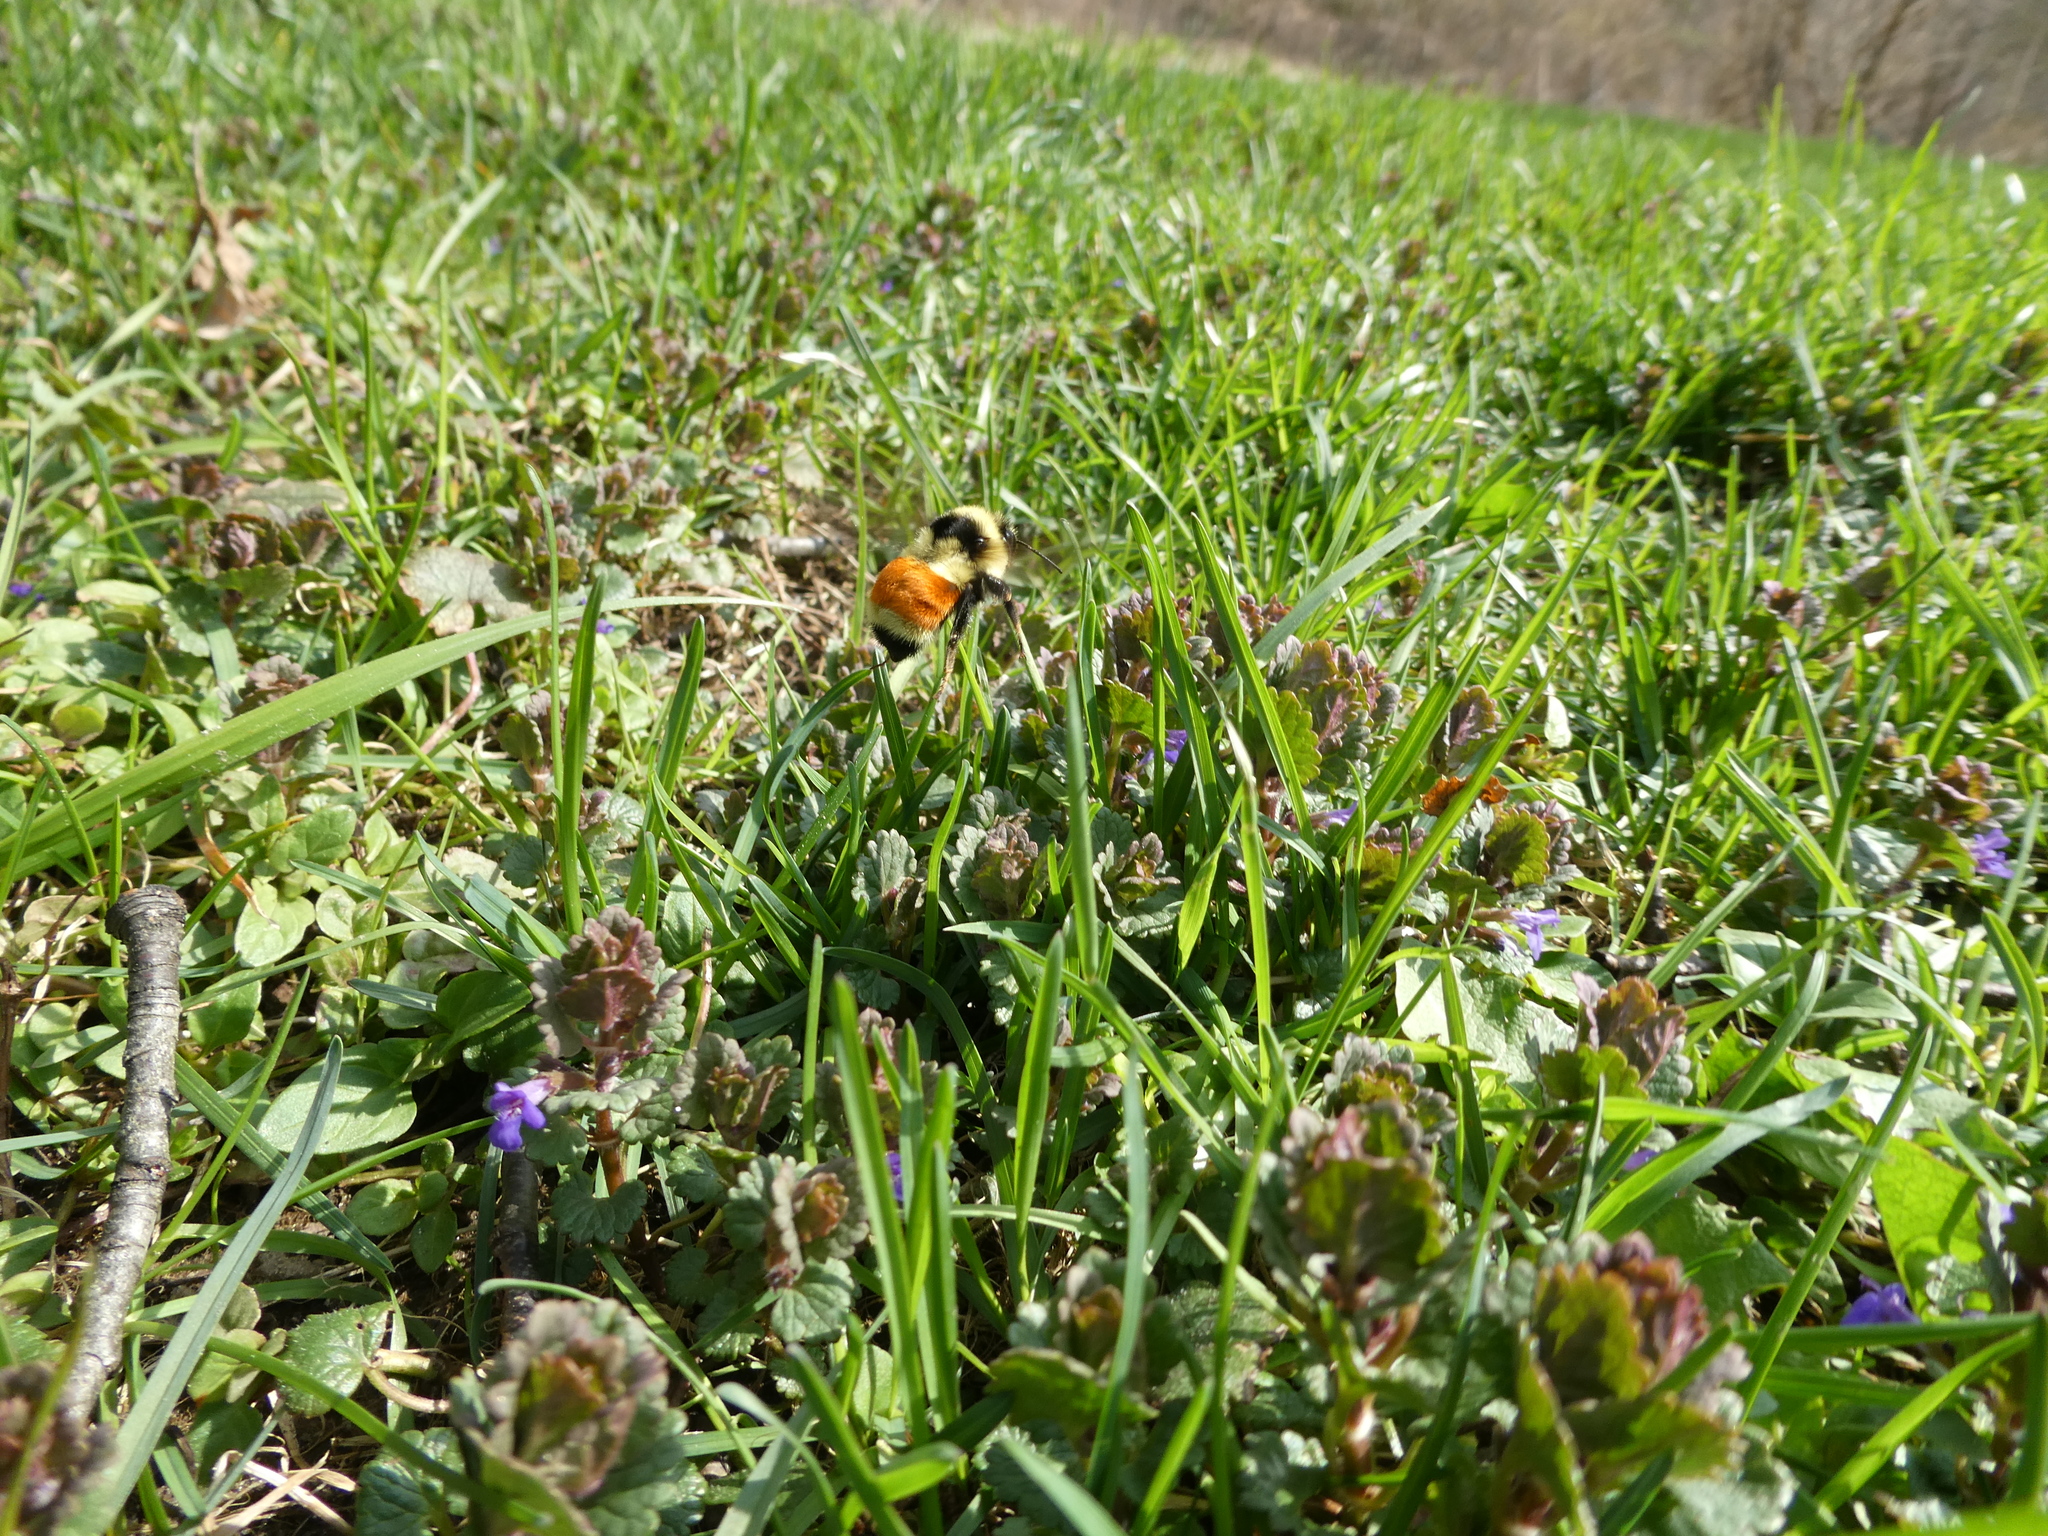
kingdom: Animalia
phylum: Arthropoda
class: Insecta
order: Hymenoptera
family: Apidae
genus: Bombus
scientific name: Bombus ternarius
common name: Tri-colored bumble bee
